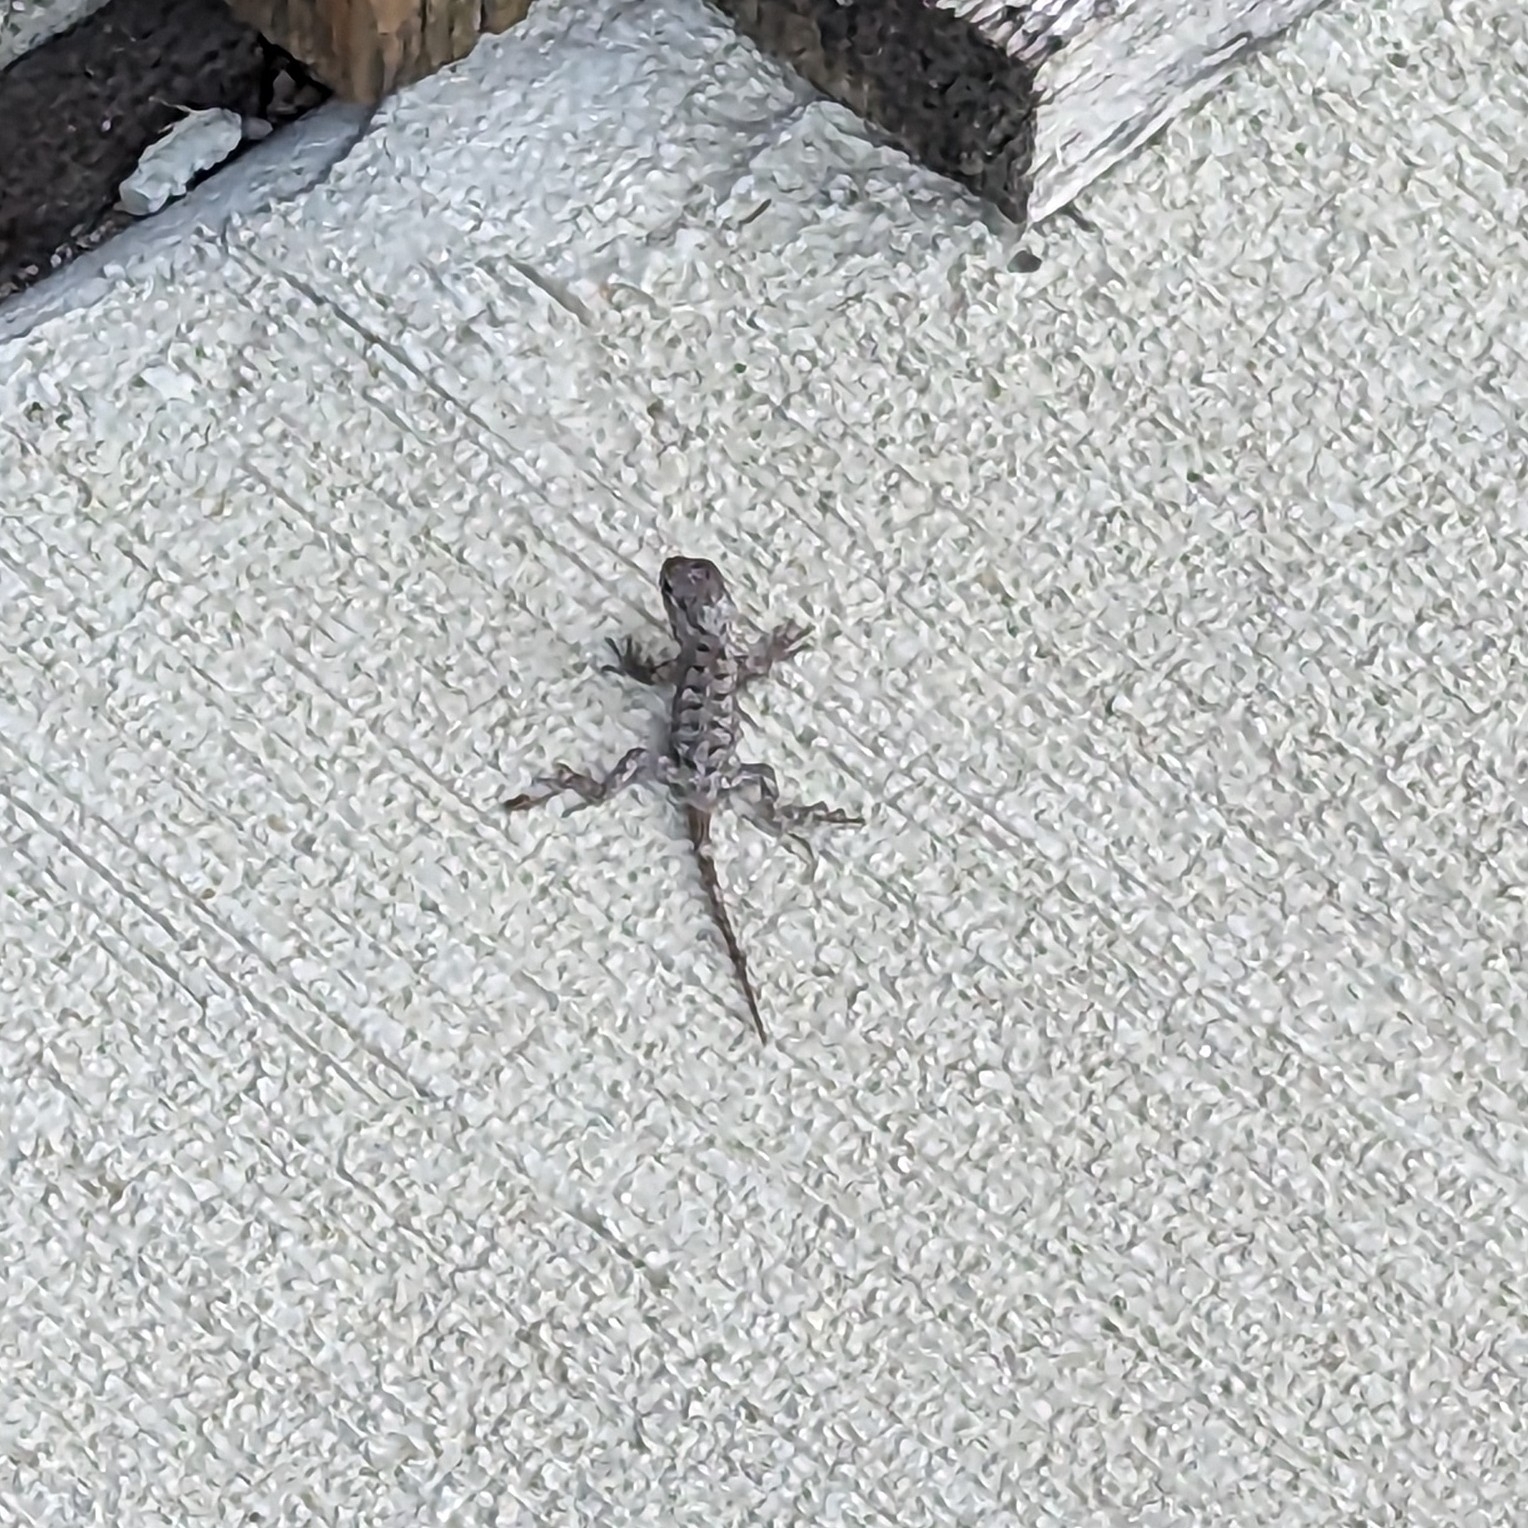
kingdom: Animalia
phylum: Chordata
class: Squamata
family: Phrynosomatidae
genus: Sceloporus
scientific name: Sceloporus undulatus
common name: Eastern fence lizard
